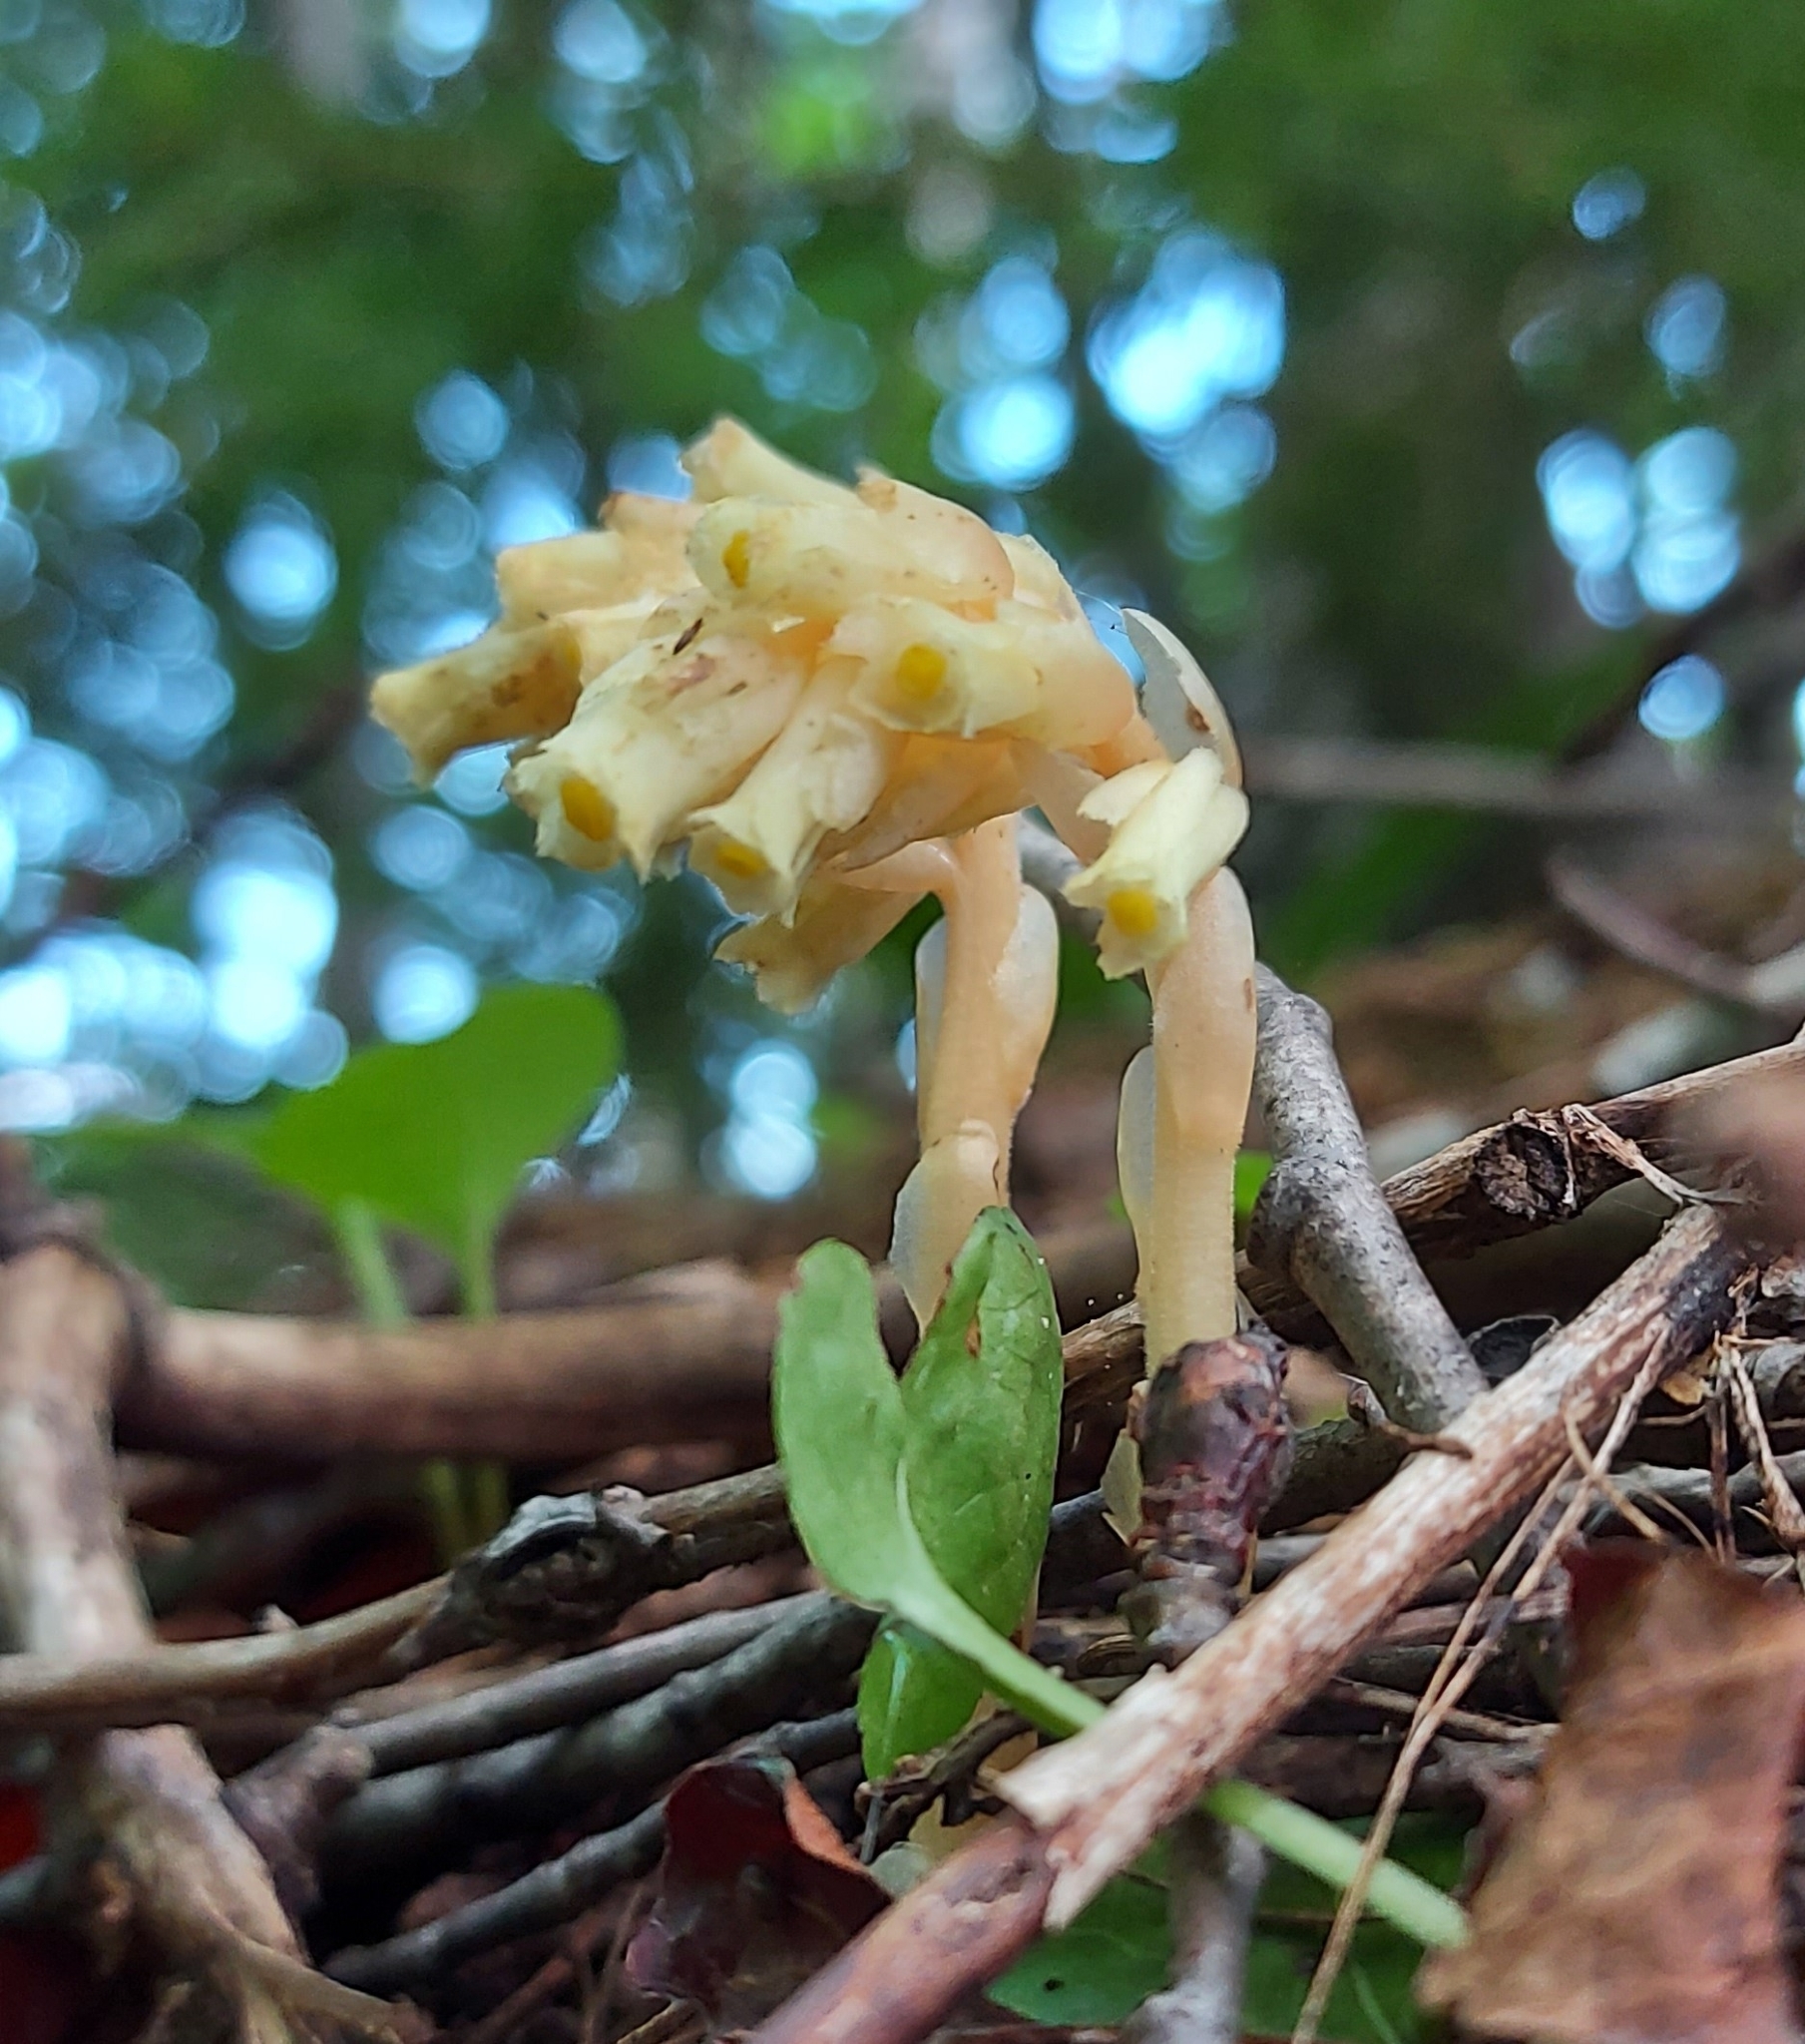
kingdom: Plantae
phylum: Tracheophyta
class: Magnoliopsida
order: Ericales
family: Ericaceae
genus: Hypopitys
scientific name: Hypopitys monotropa
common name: Yellow bird's-nest
